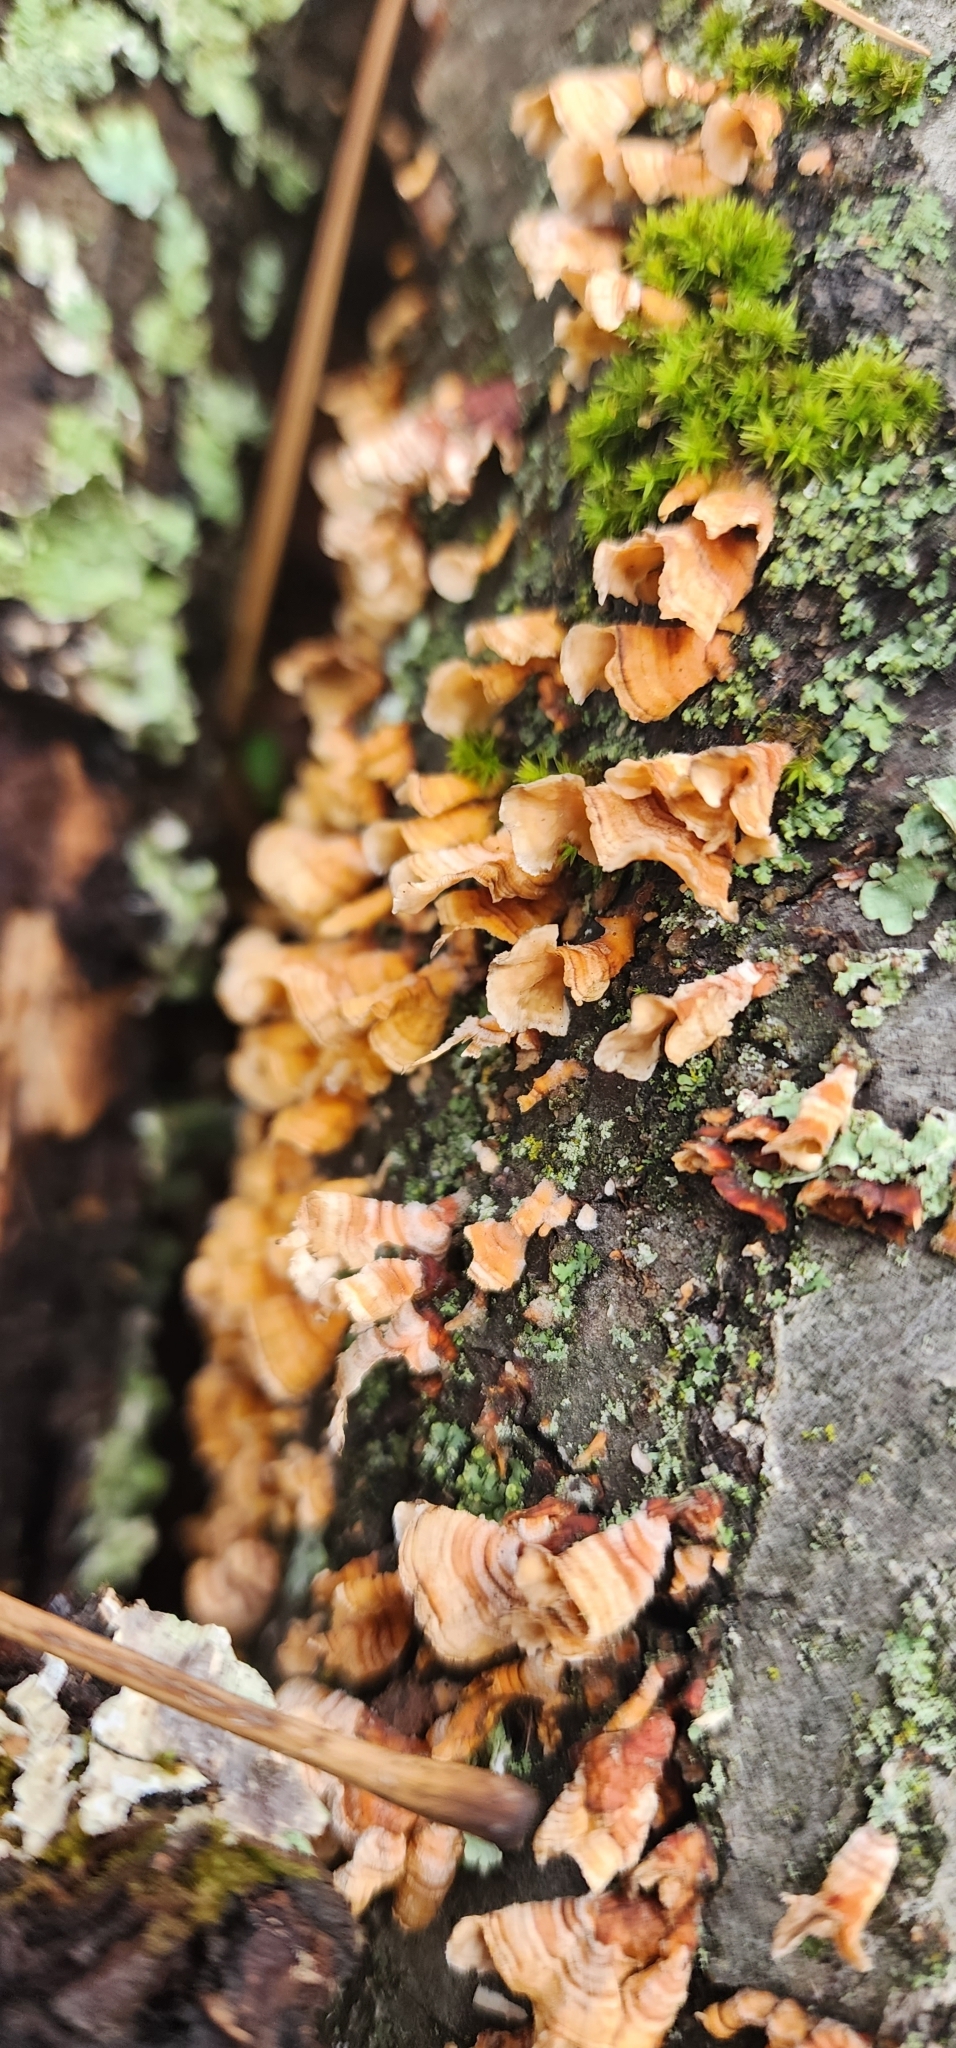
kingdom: Fungi
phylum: Basidiomycota
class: Agaricomycetes
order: Russulales
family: Stereaceae
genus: Stereum
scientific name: Stereum complicatum
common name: Crowded parchment
